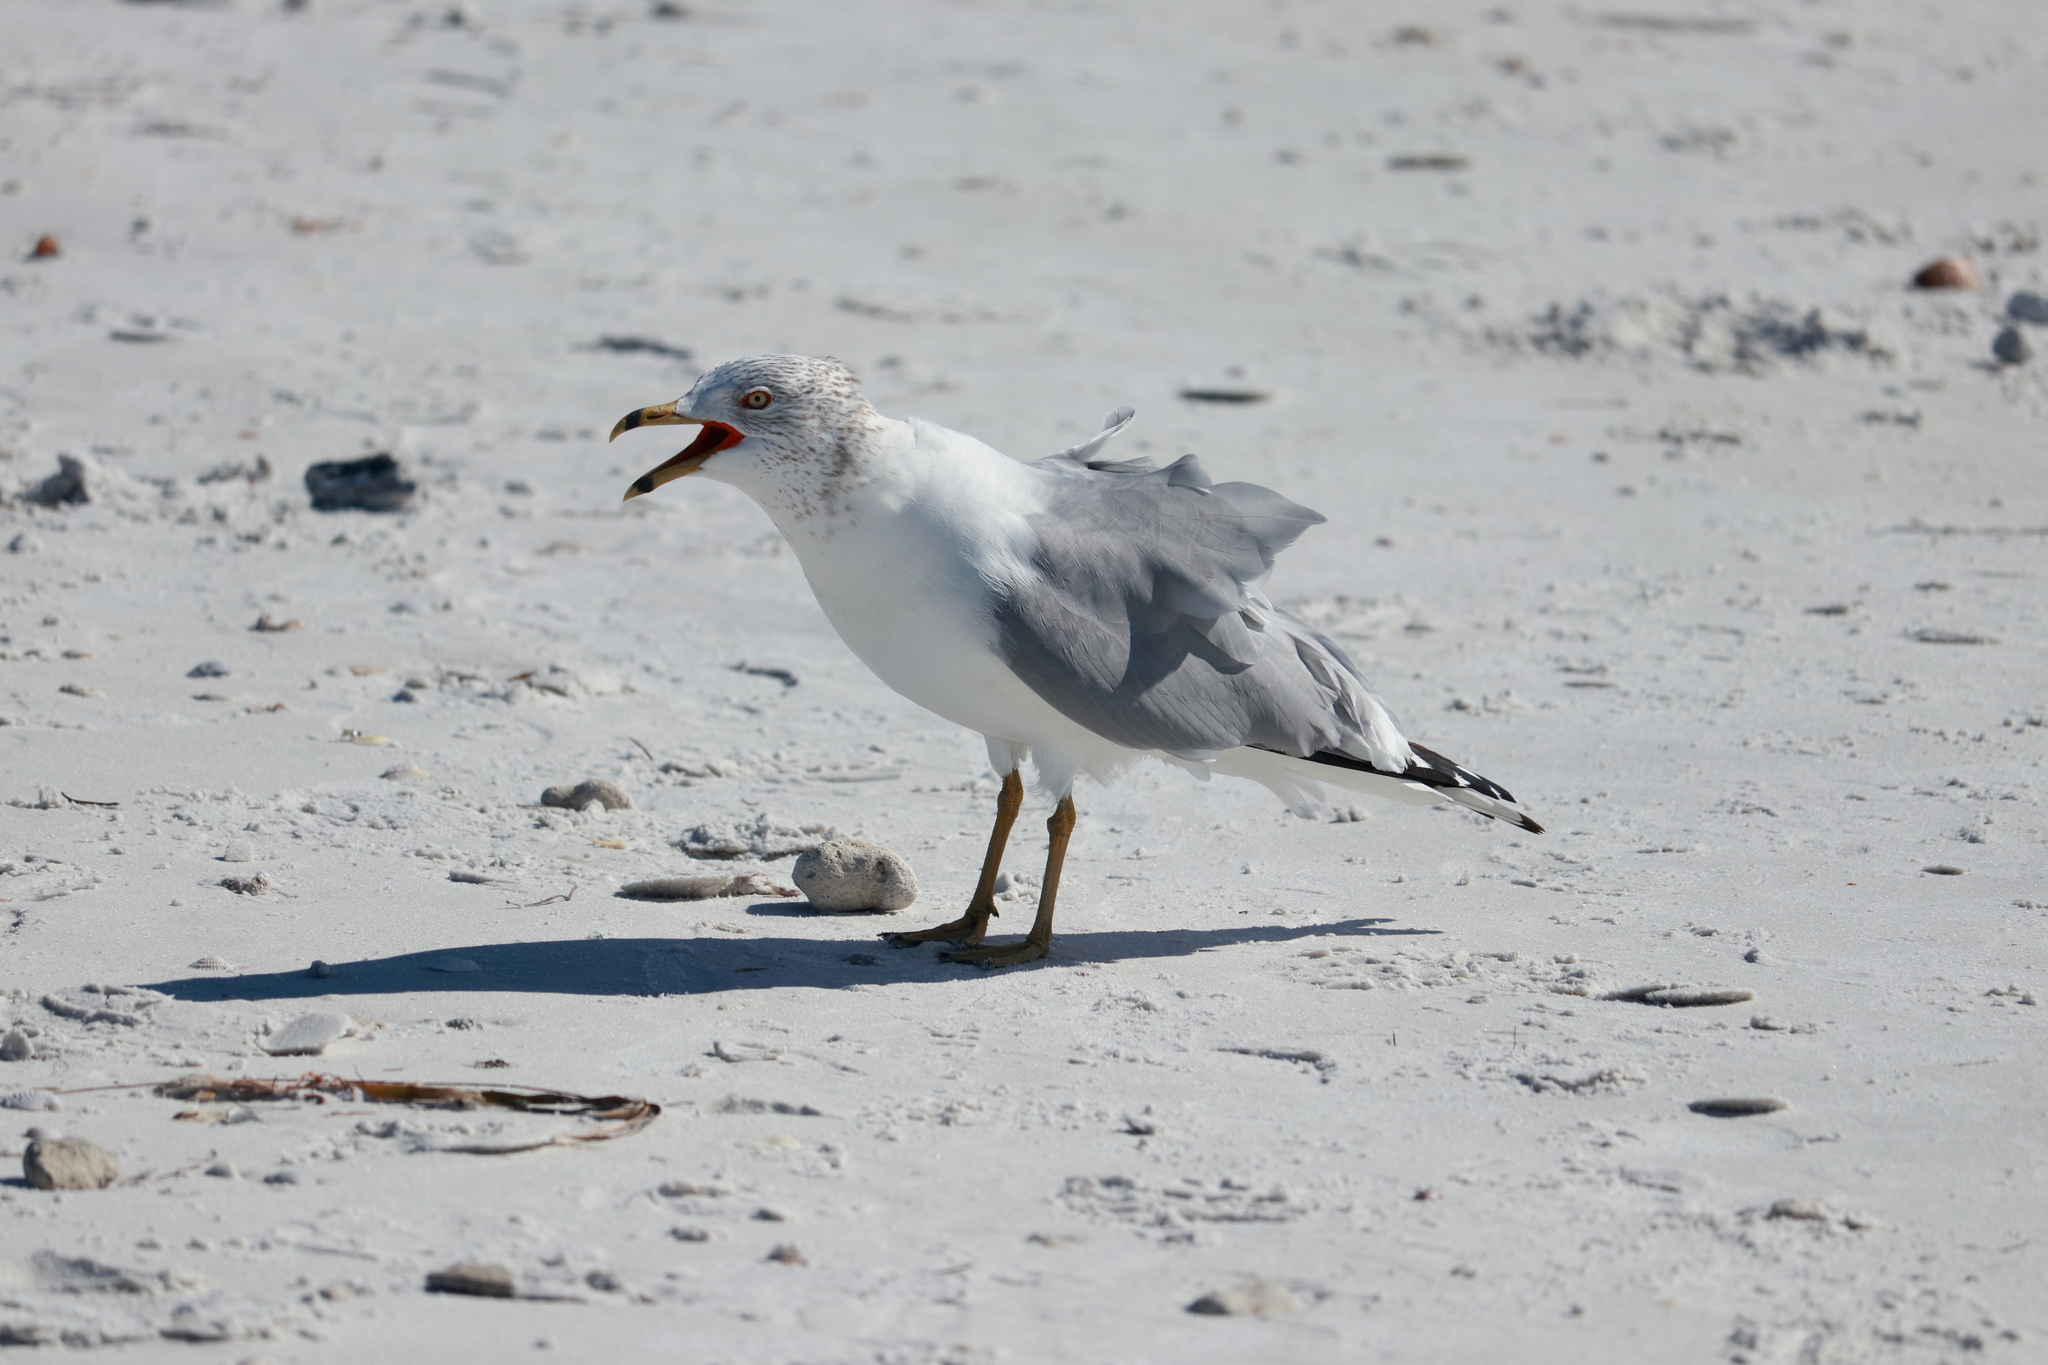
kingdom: Animalia
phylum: Chordata
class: Aves
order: Charadriiformes
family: Laridae
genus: Larus
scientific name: Larus delawarensis
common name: Ring-billed gull
